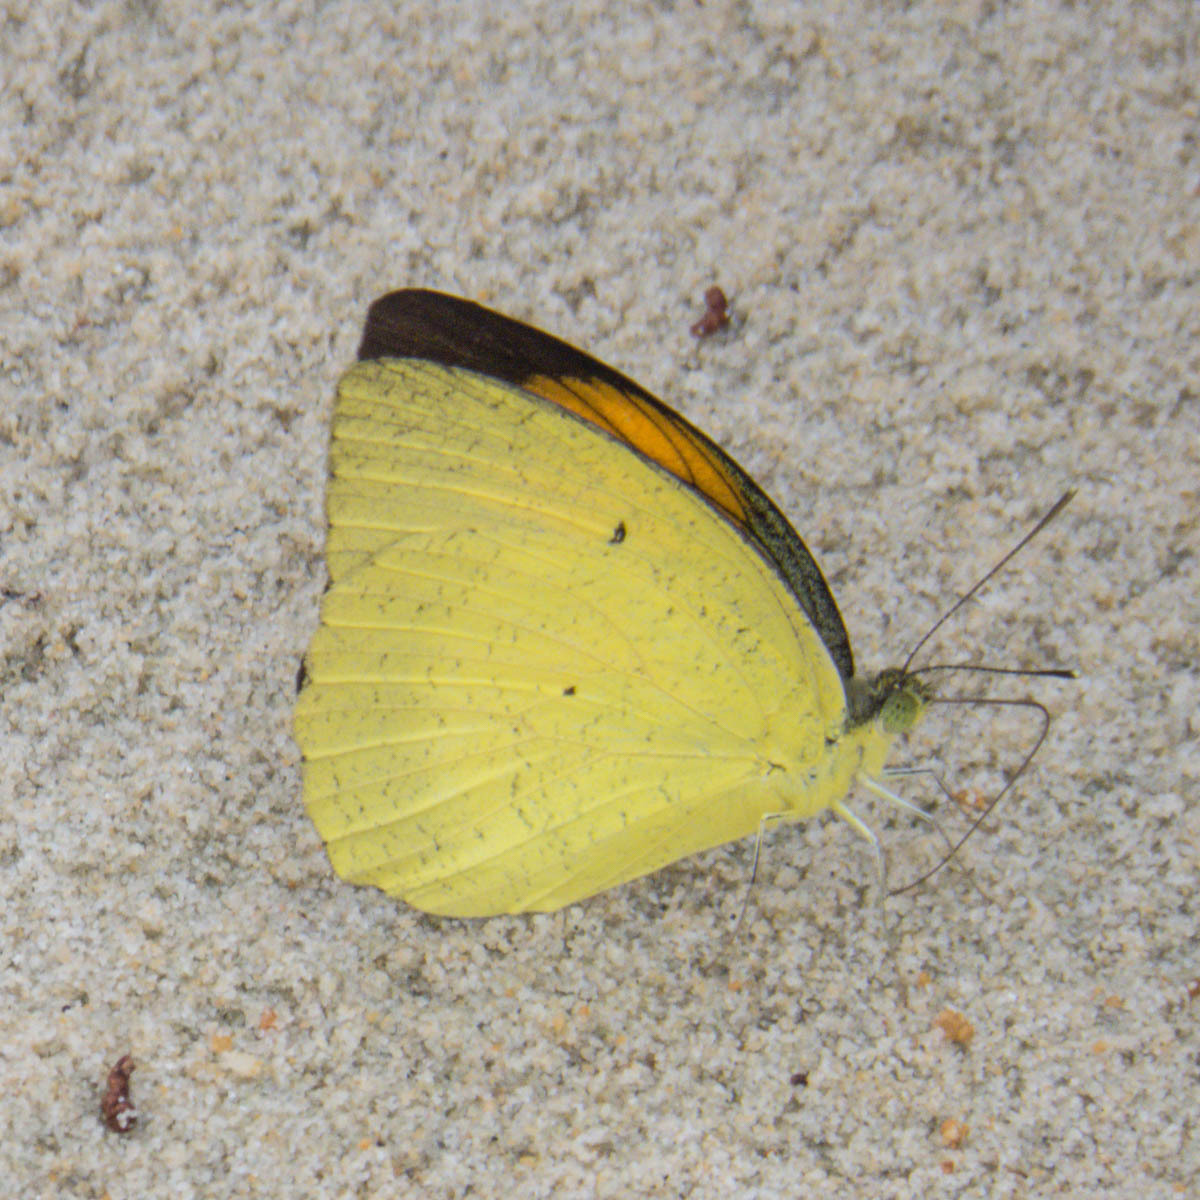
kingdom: Animalia
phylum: Arthropoda
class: Insecta
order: Lepidoptera
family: Pieridae
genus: Ixias
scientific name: Ixias pyrene
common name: Yellow orange tip
